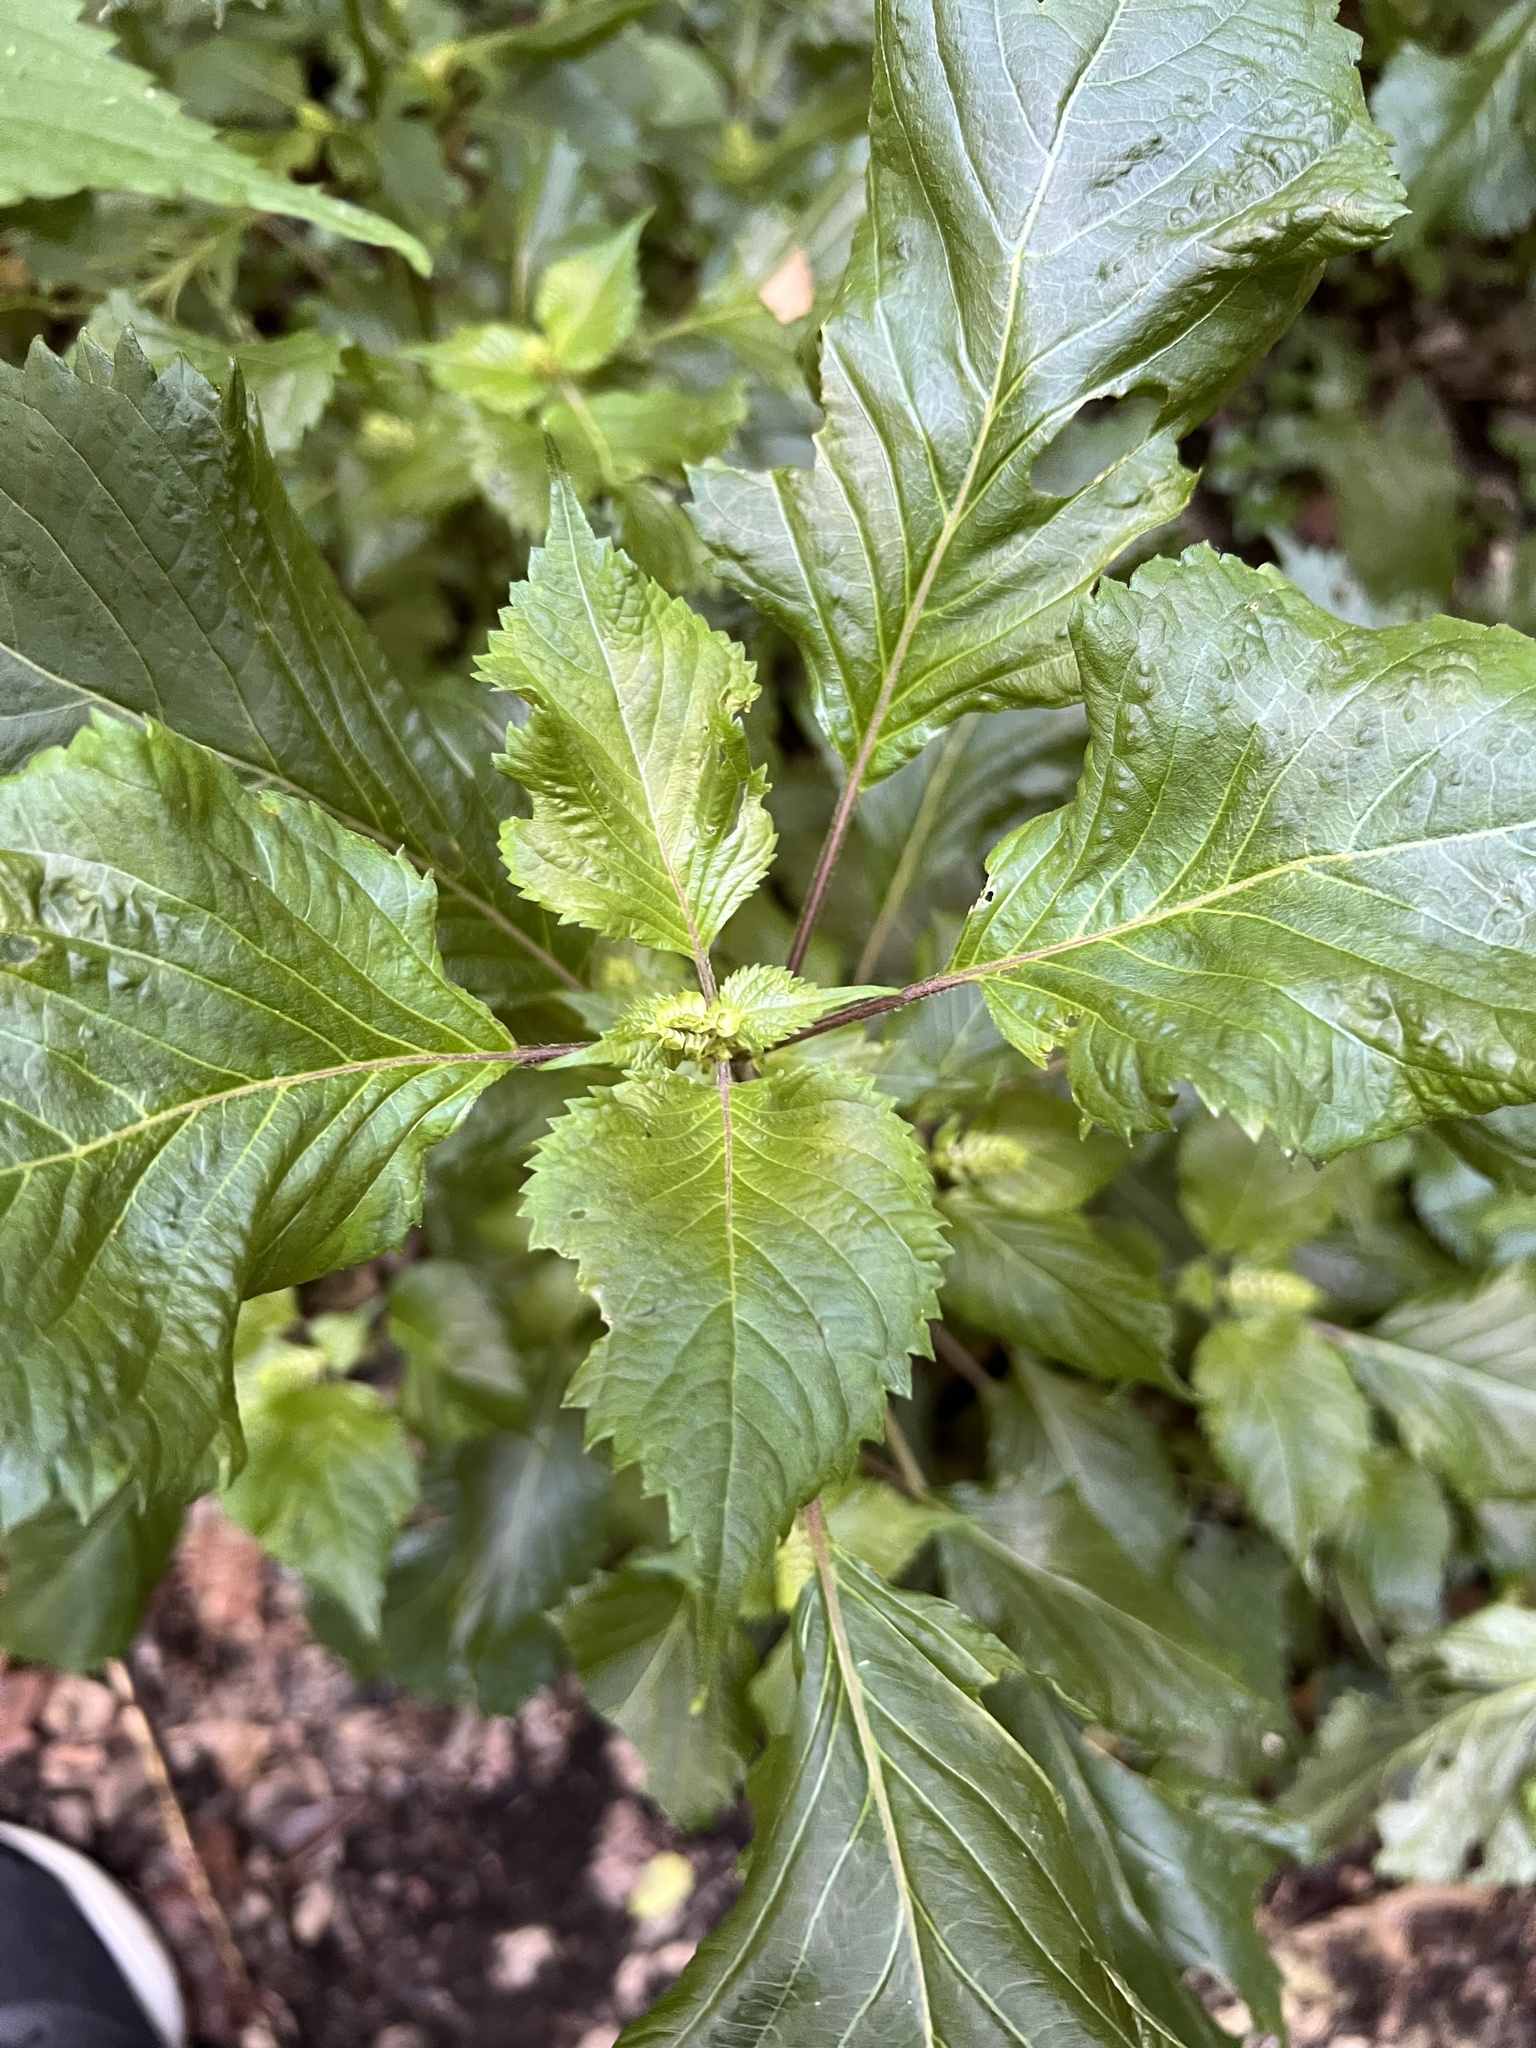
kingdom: Plantae
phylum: Tracheophyta
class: Magnoliopsida
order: Lamiales
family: Lamiaceae
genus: Perilla
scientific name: Perilla frutescens
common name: Perilla
